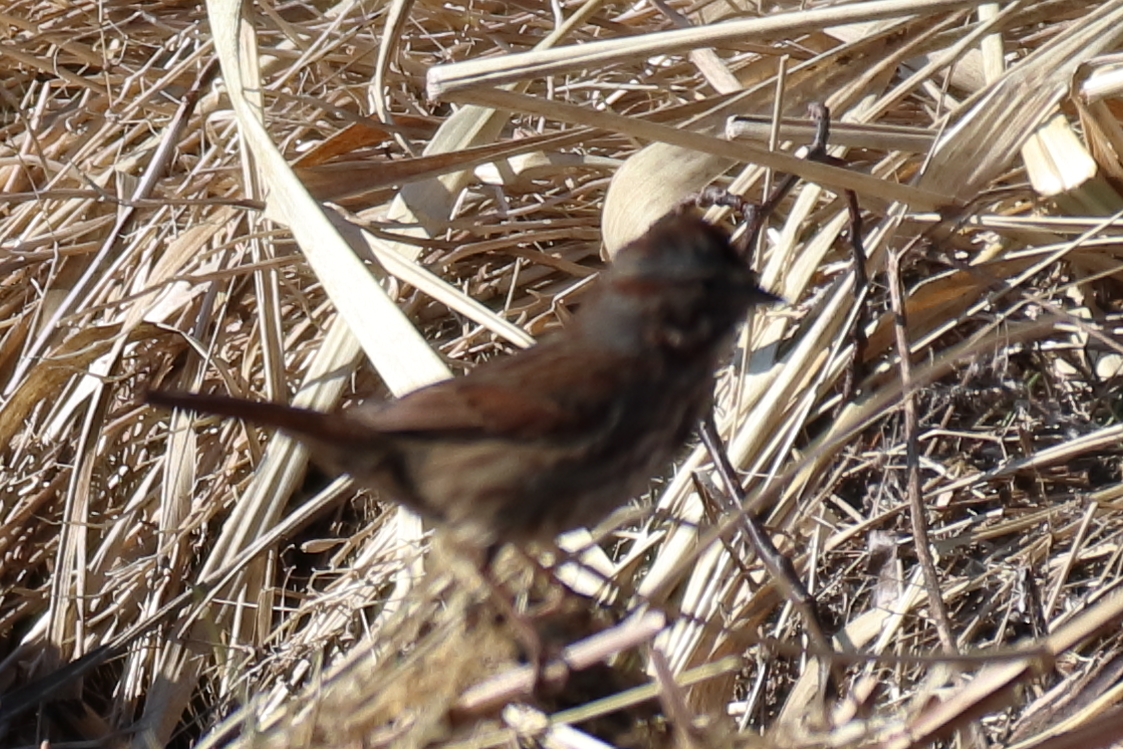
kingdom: Animalia
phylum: Chordata
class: Aves
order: Passeriformes
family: Passerellidae
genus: Melospiza
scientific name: Melospiza melodia
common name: Song sparrow
